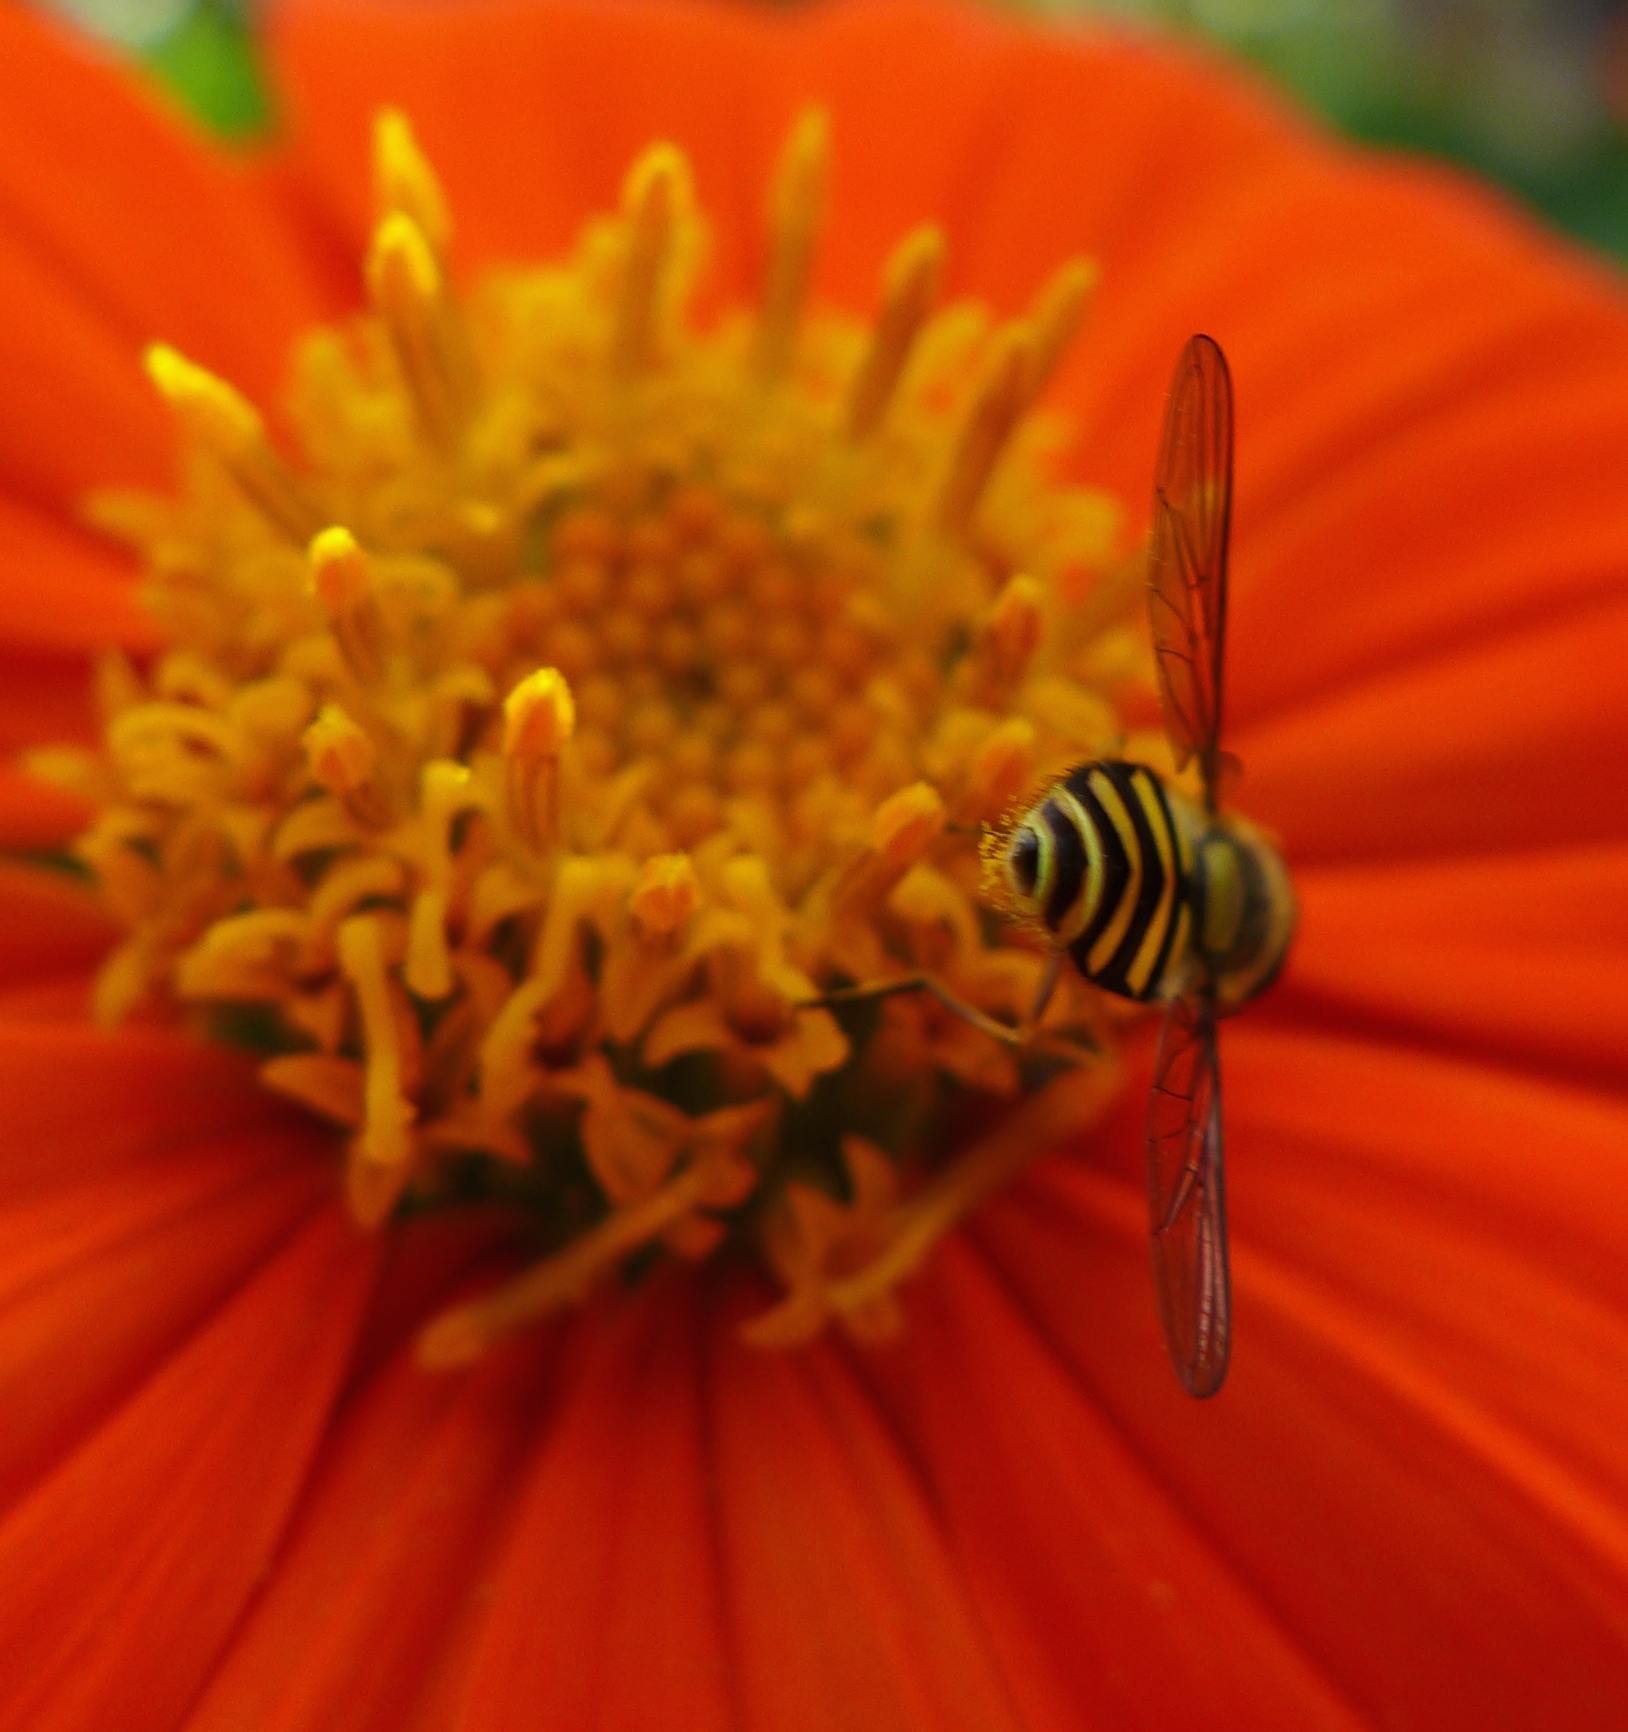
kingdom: Animalia
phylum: Arthropoda
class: Insecta
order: Diptera
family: Syrphidae
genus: Syrphus
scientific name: Syrphus opinator
